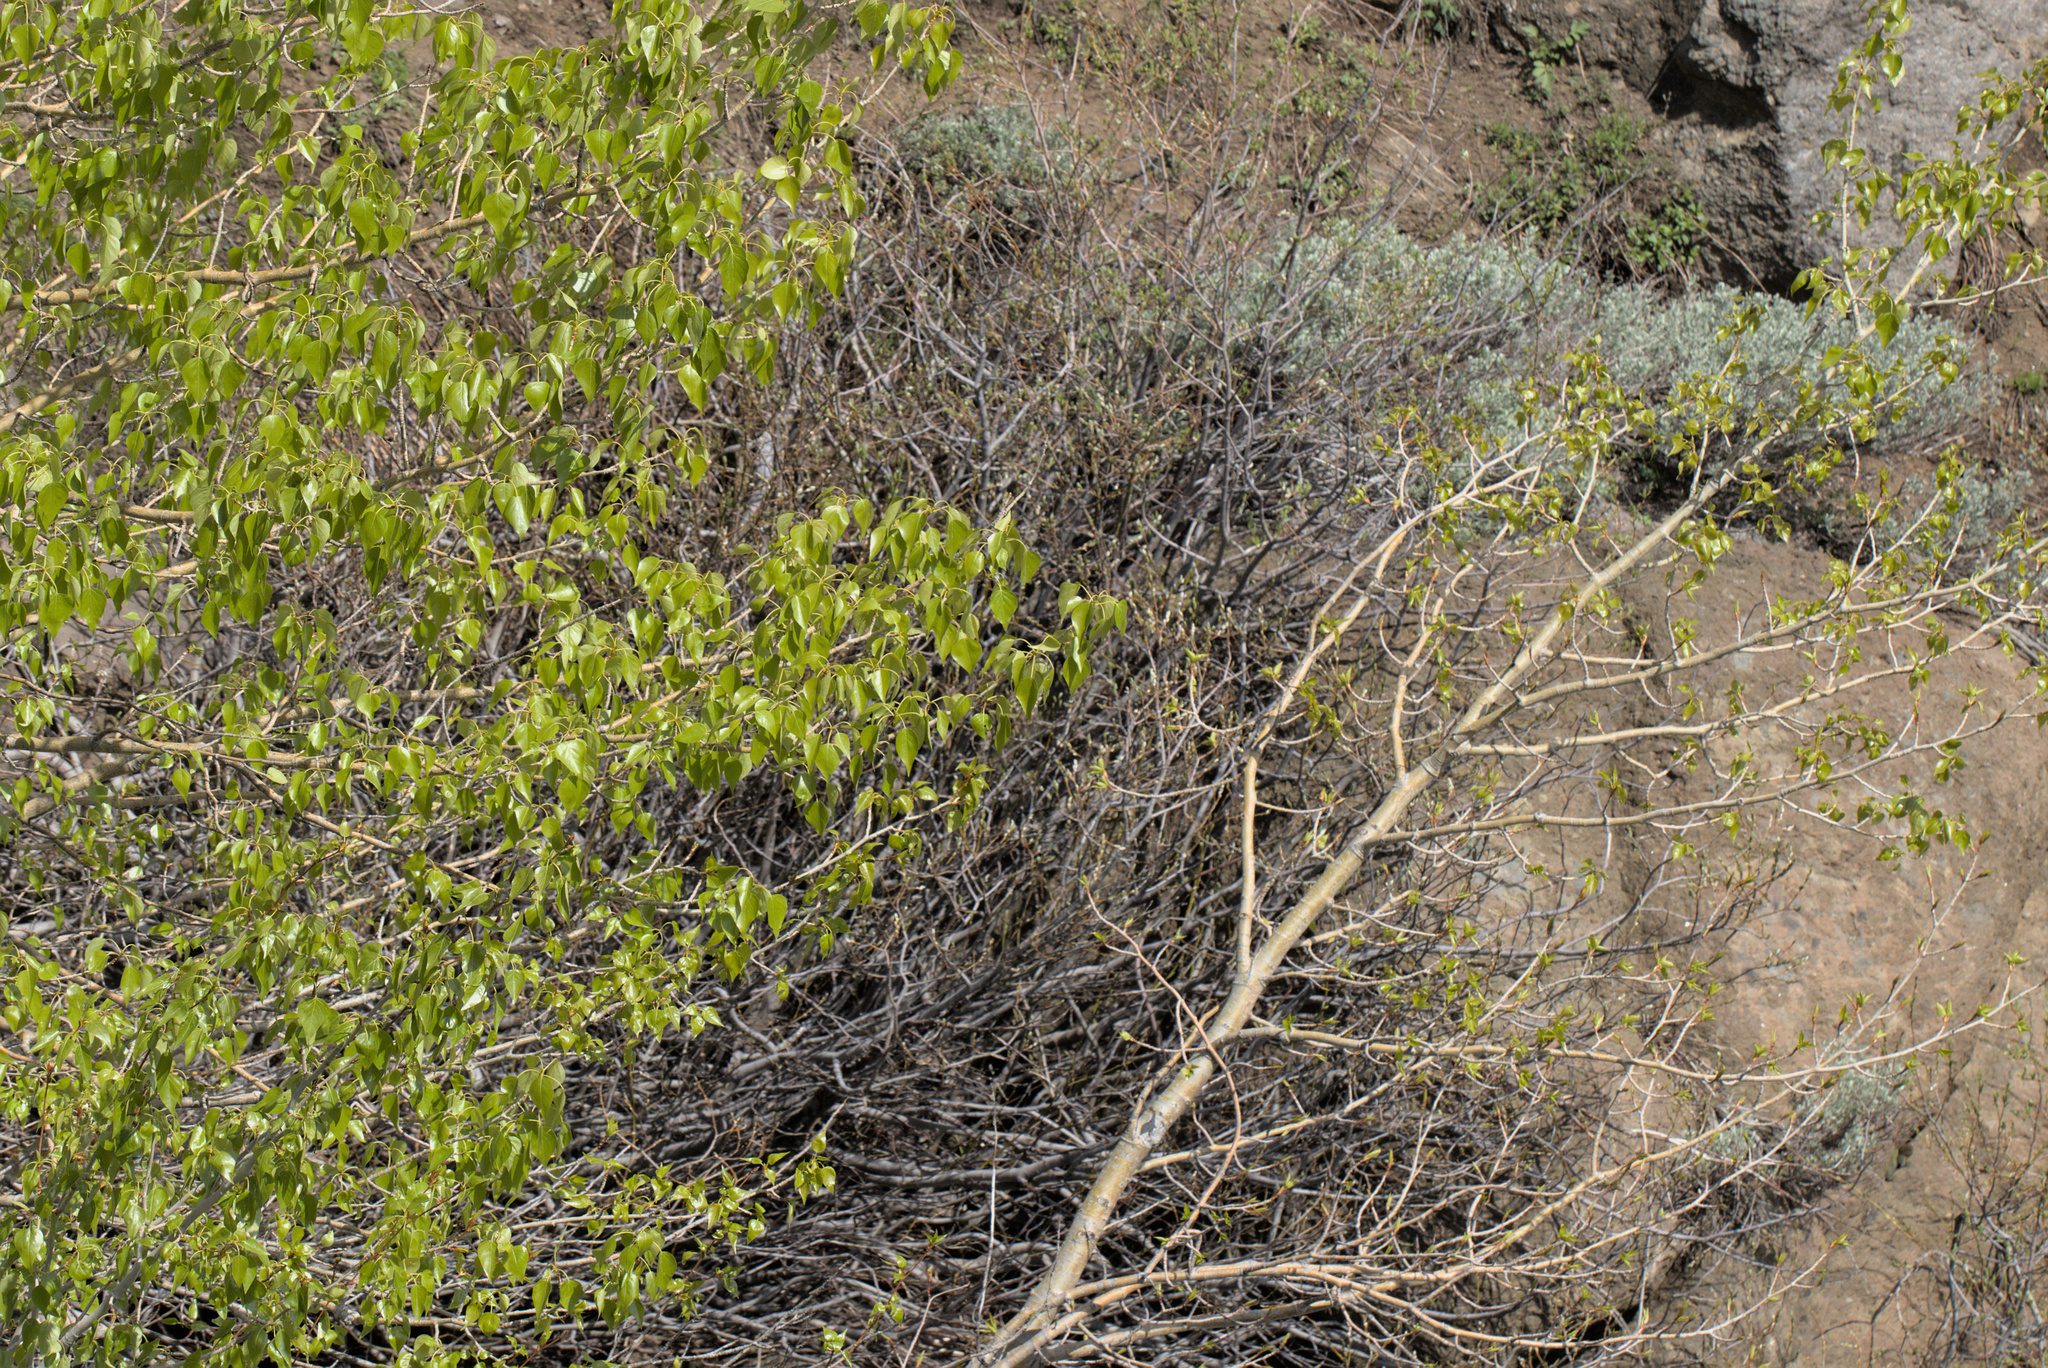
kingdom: Plantae
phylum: Tracheophyta
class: Magnoliopsida
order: Malpighiales
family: Salicaceae
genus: Populus
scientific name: Populus trichocarpa
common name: Black cottonwood
